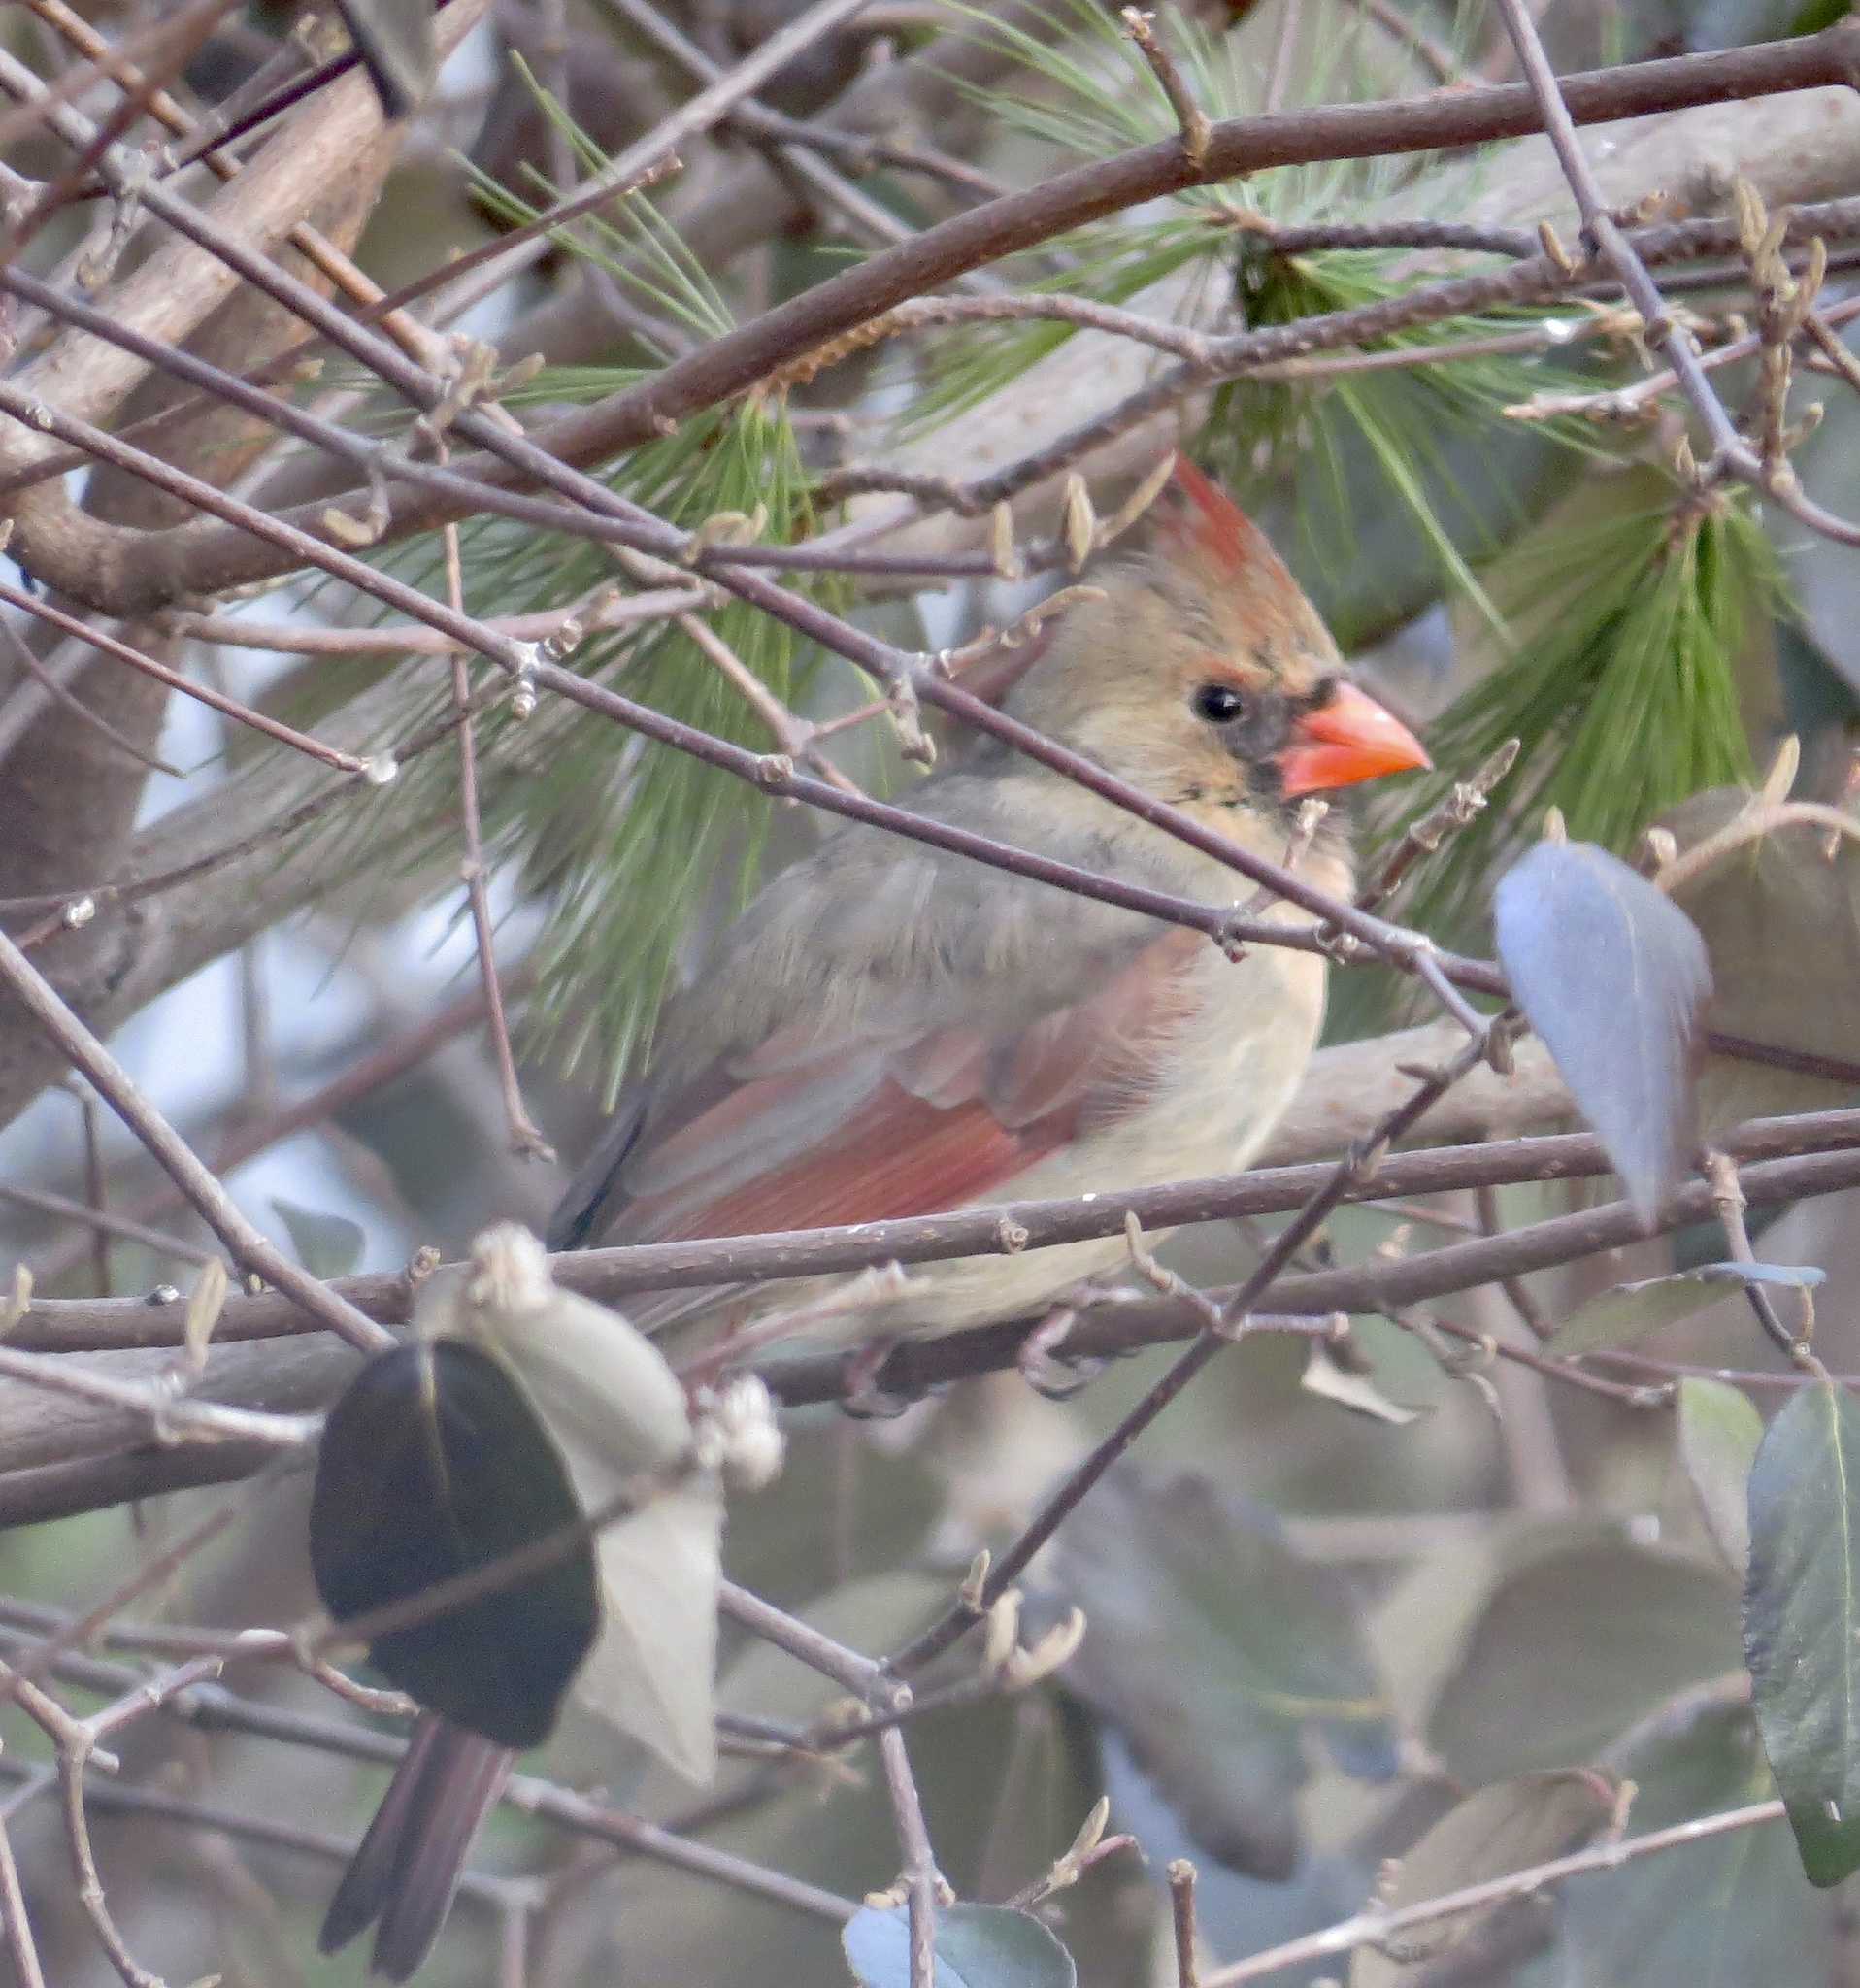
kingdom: Animalia
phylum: Chordata
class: Aves
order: Passeriformes
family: Cardinalidae
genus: Cardinalis
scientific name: Cardinalis cardinalis
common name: Northern cardinal
